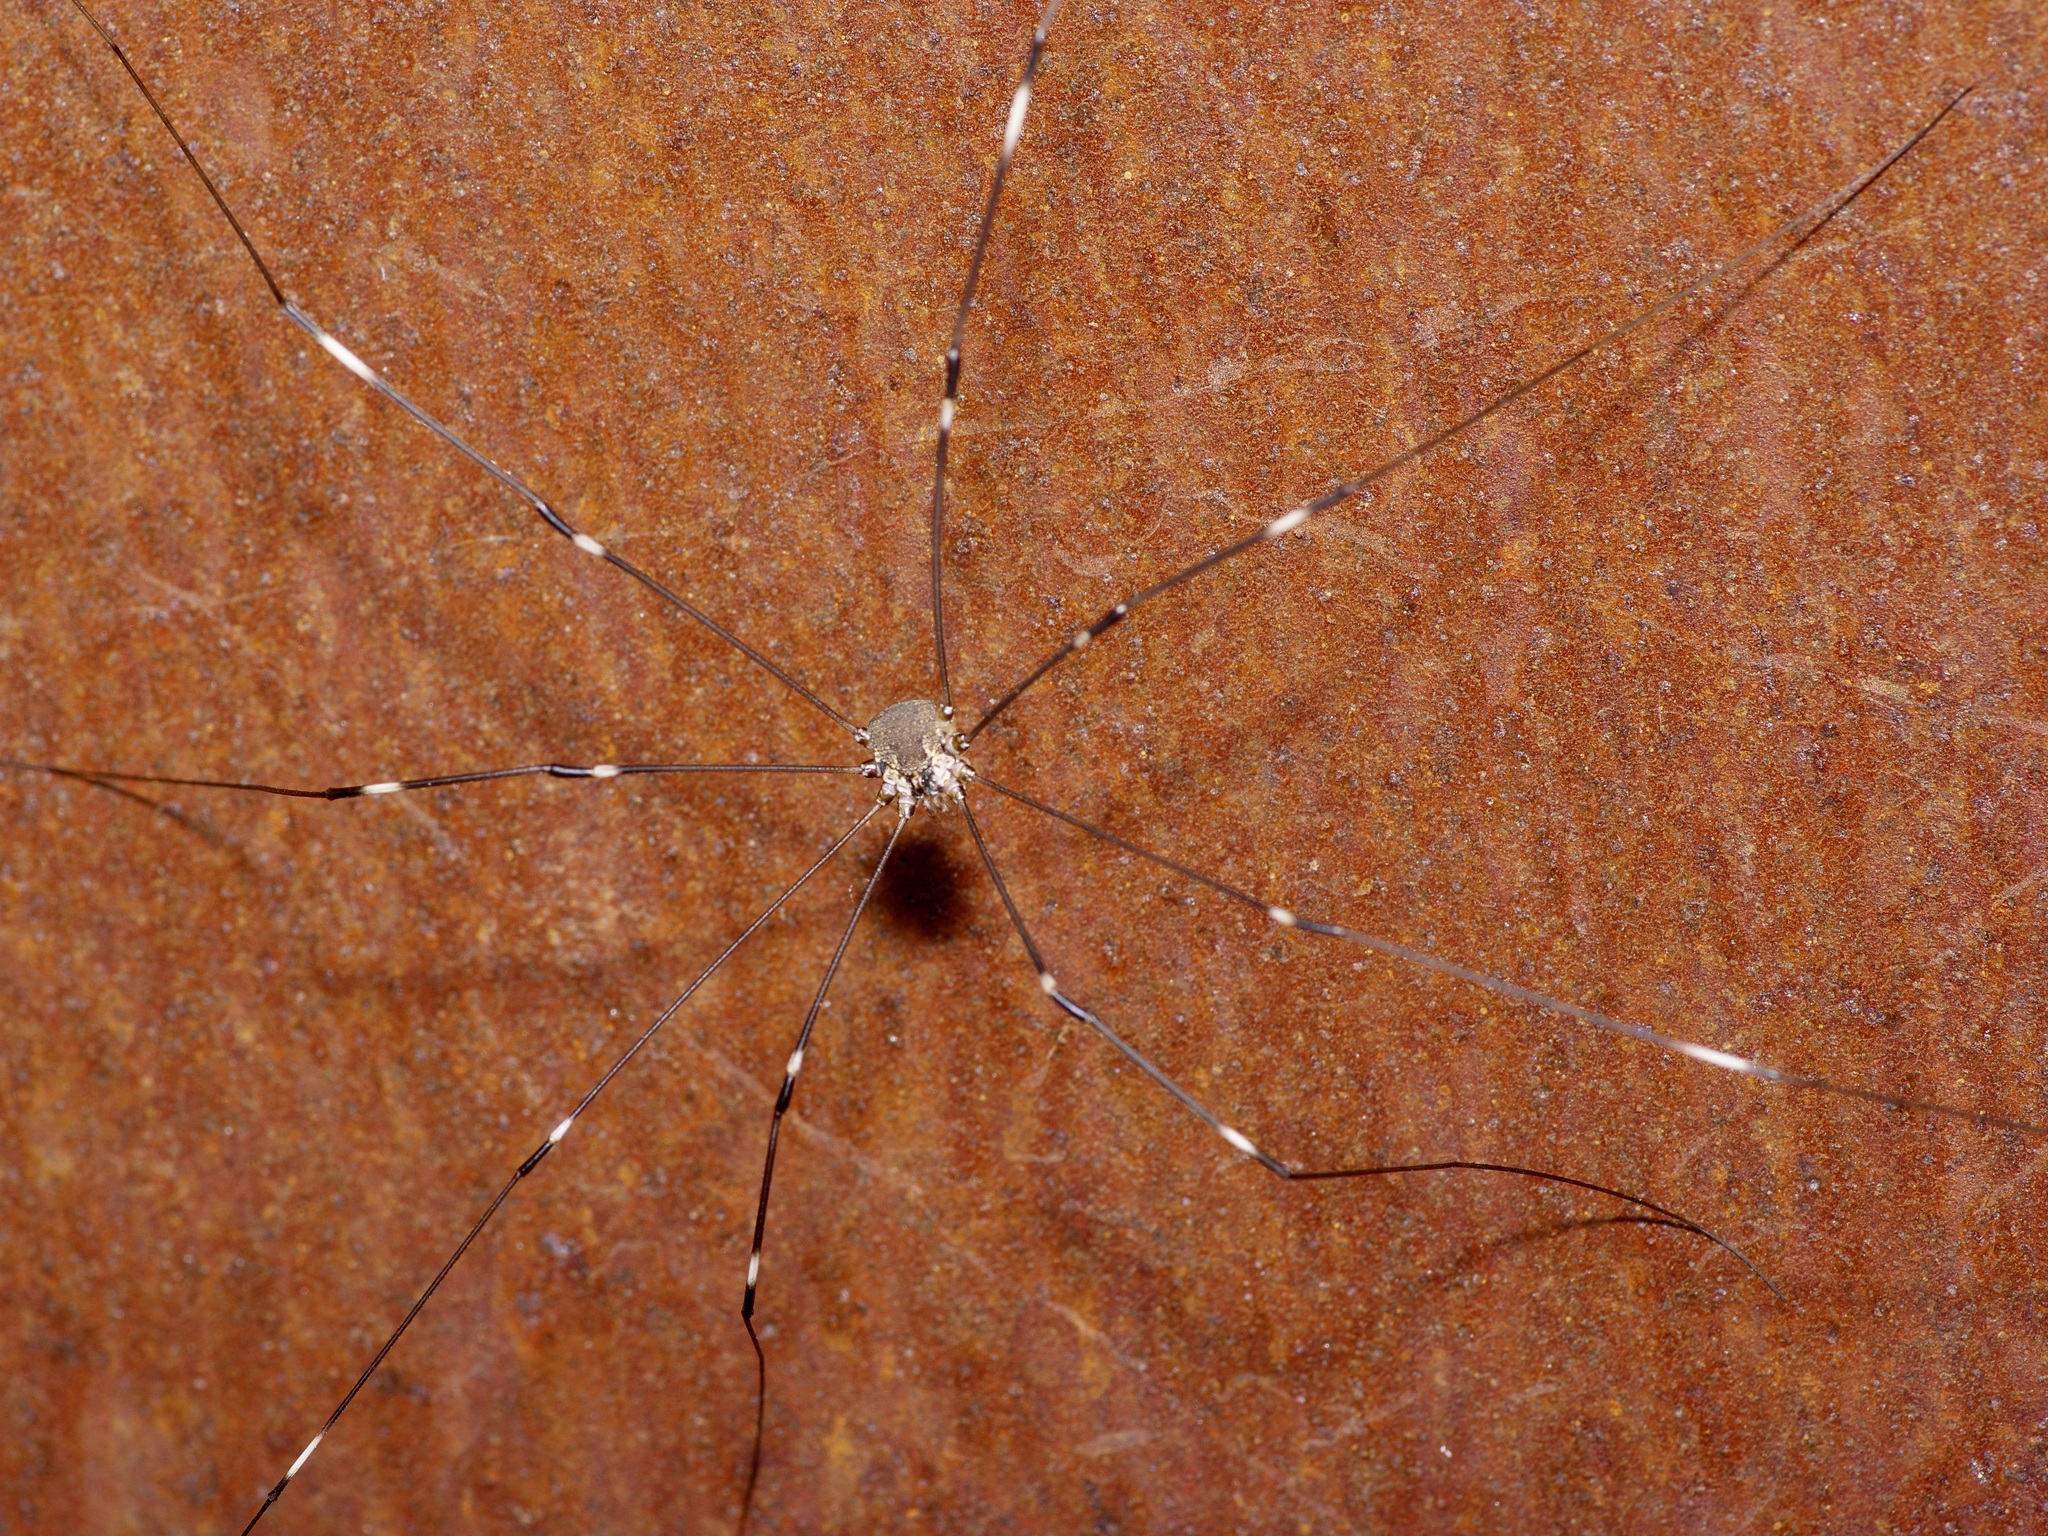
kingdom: Animalia
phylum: Arthropoda
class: Arachnida
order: Opiliones
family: Sclerosomatidae
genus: Leiobunum
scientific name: Leiobunum townsendi
